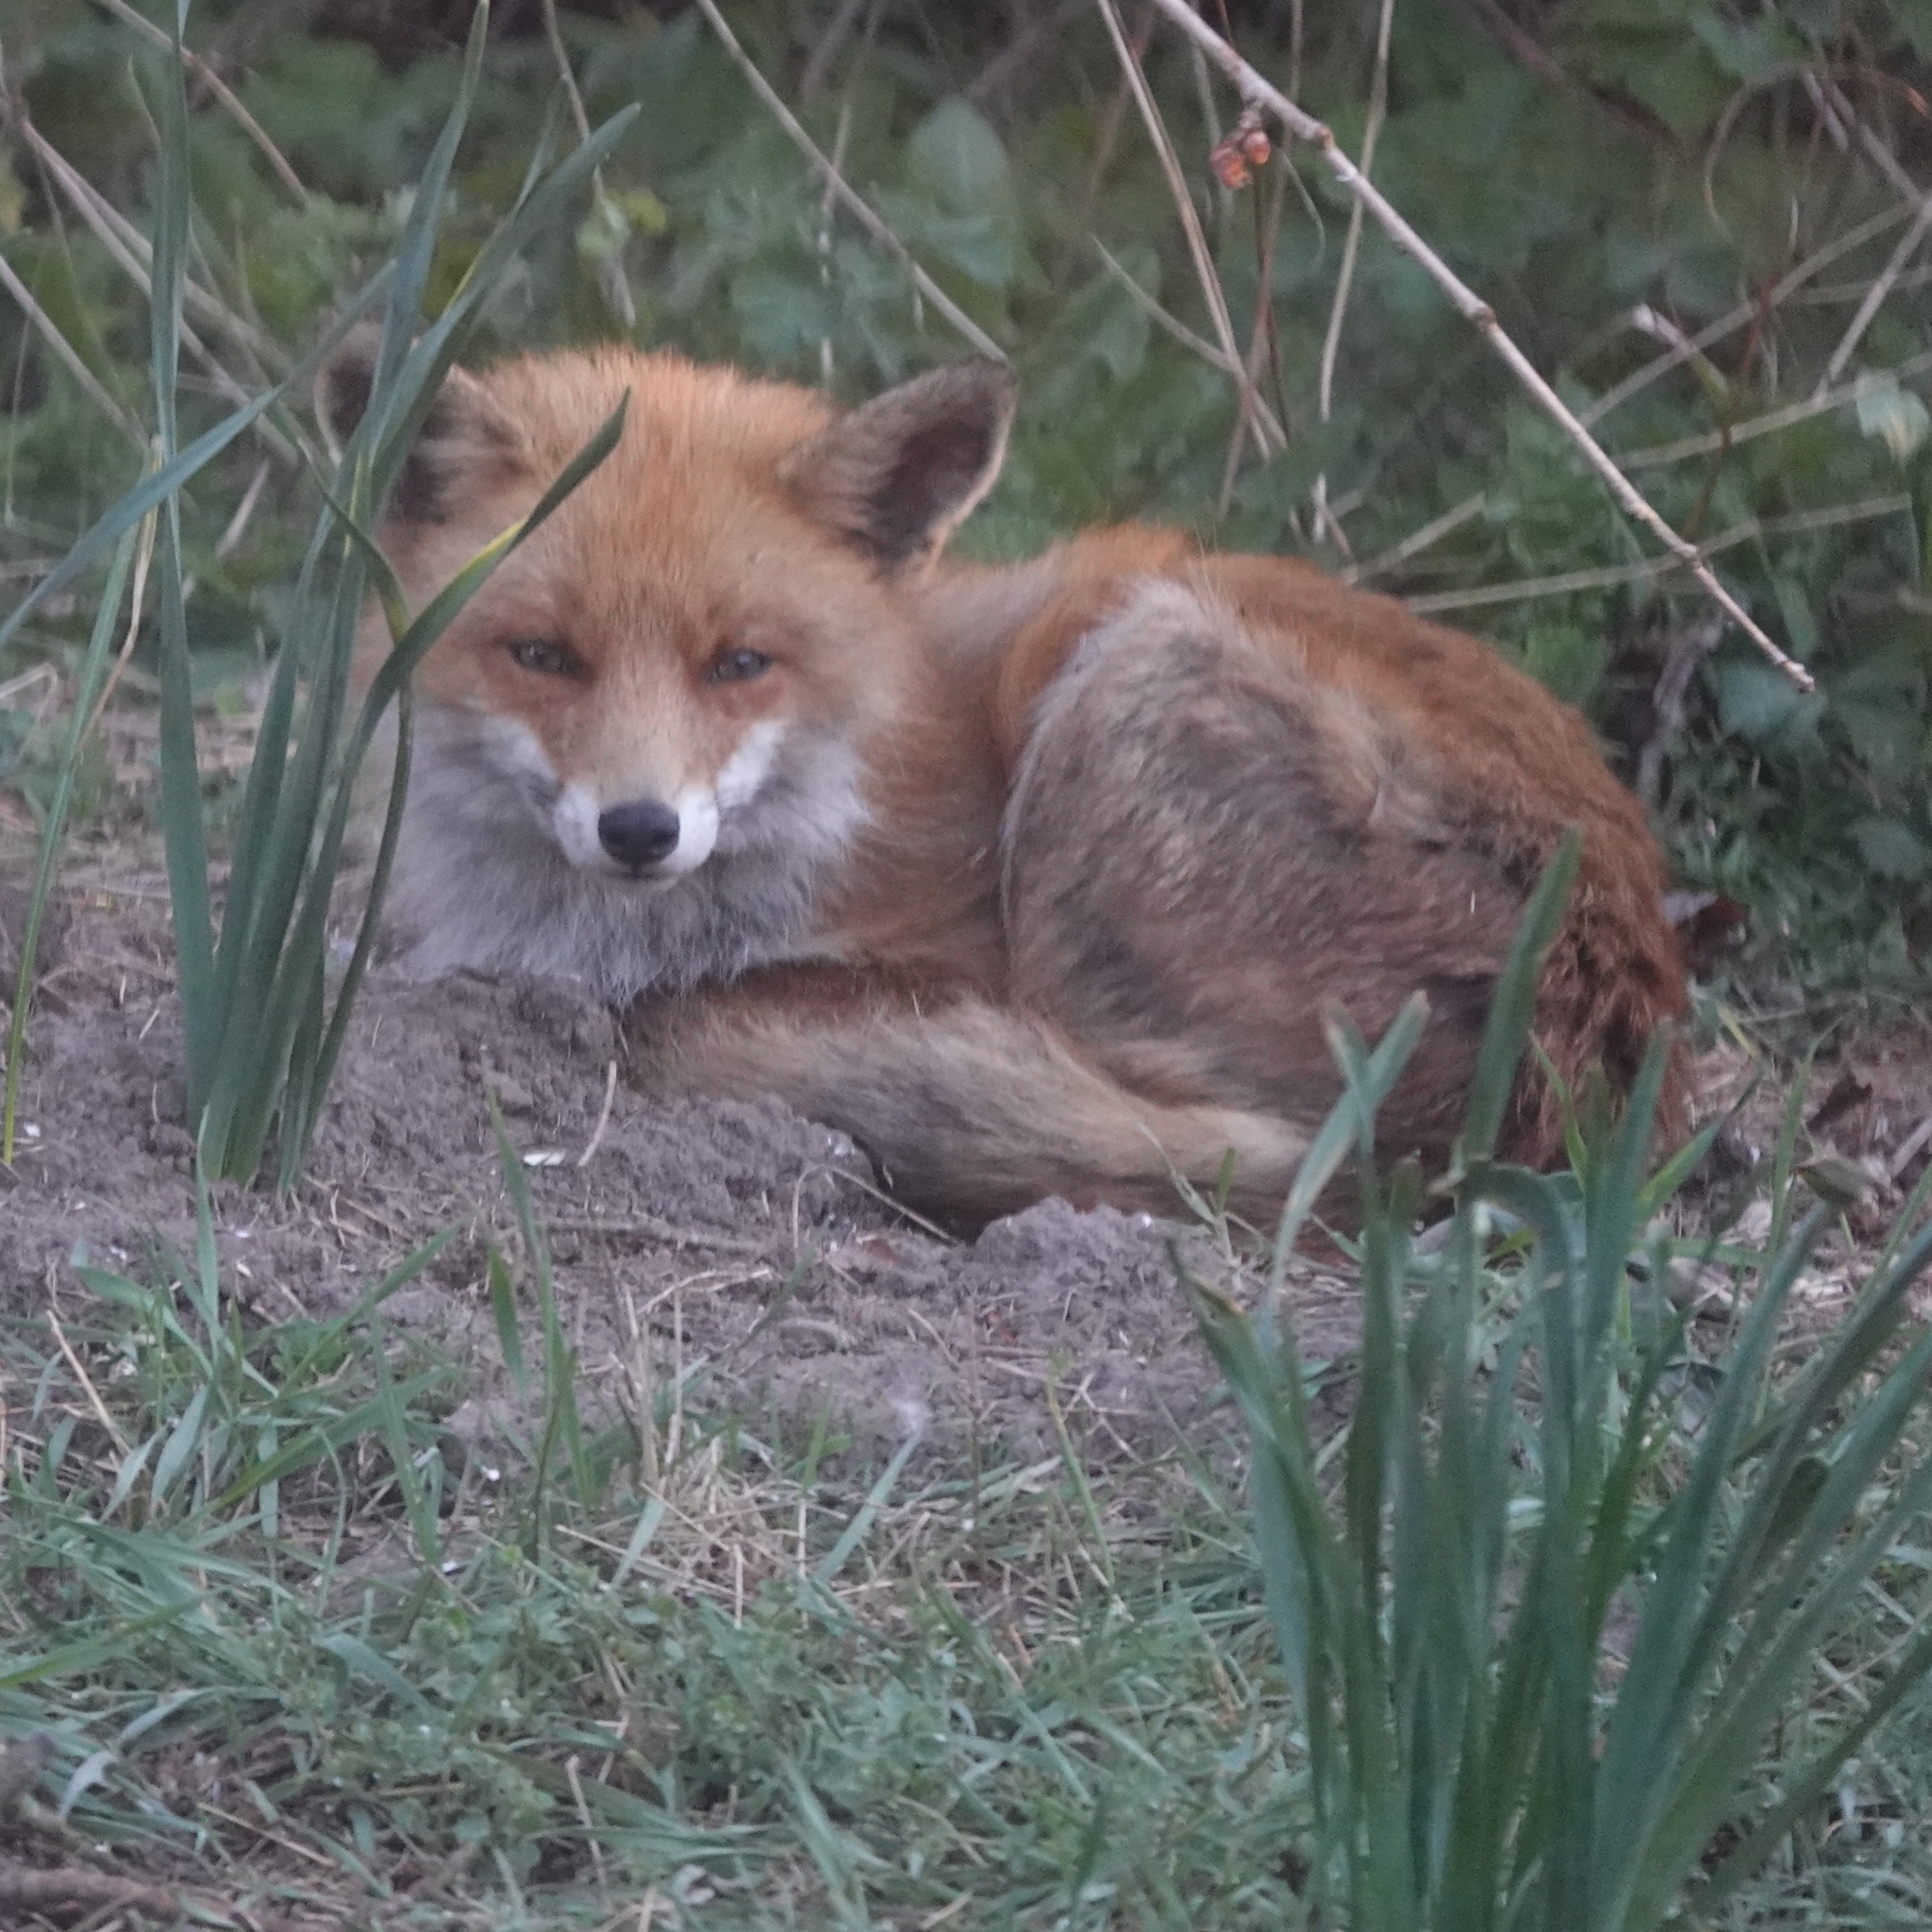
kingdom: Animalia
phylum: Chordata
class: Mammalia
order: Carnivora
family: Canidae
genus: Vulpes
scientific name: Vulpes vulpes
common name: Red fox
